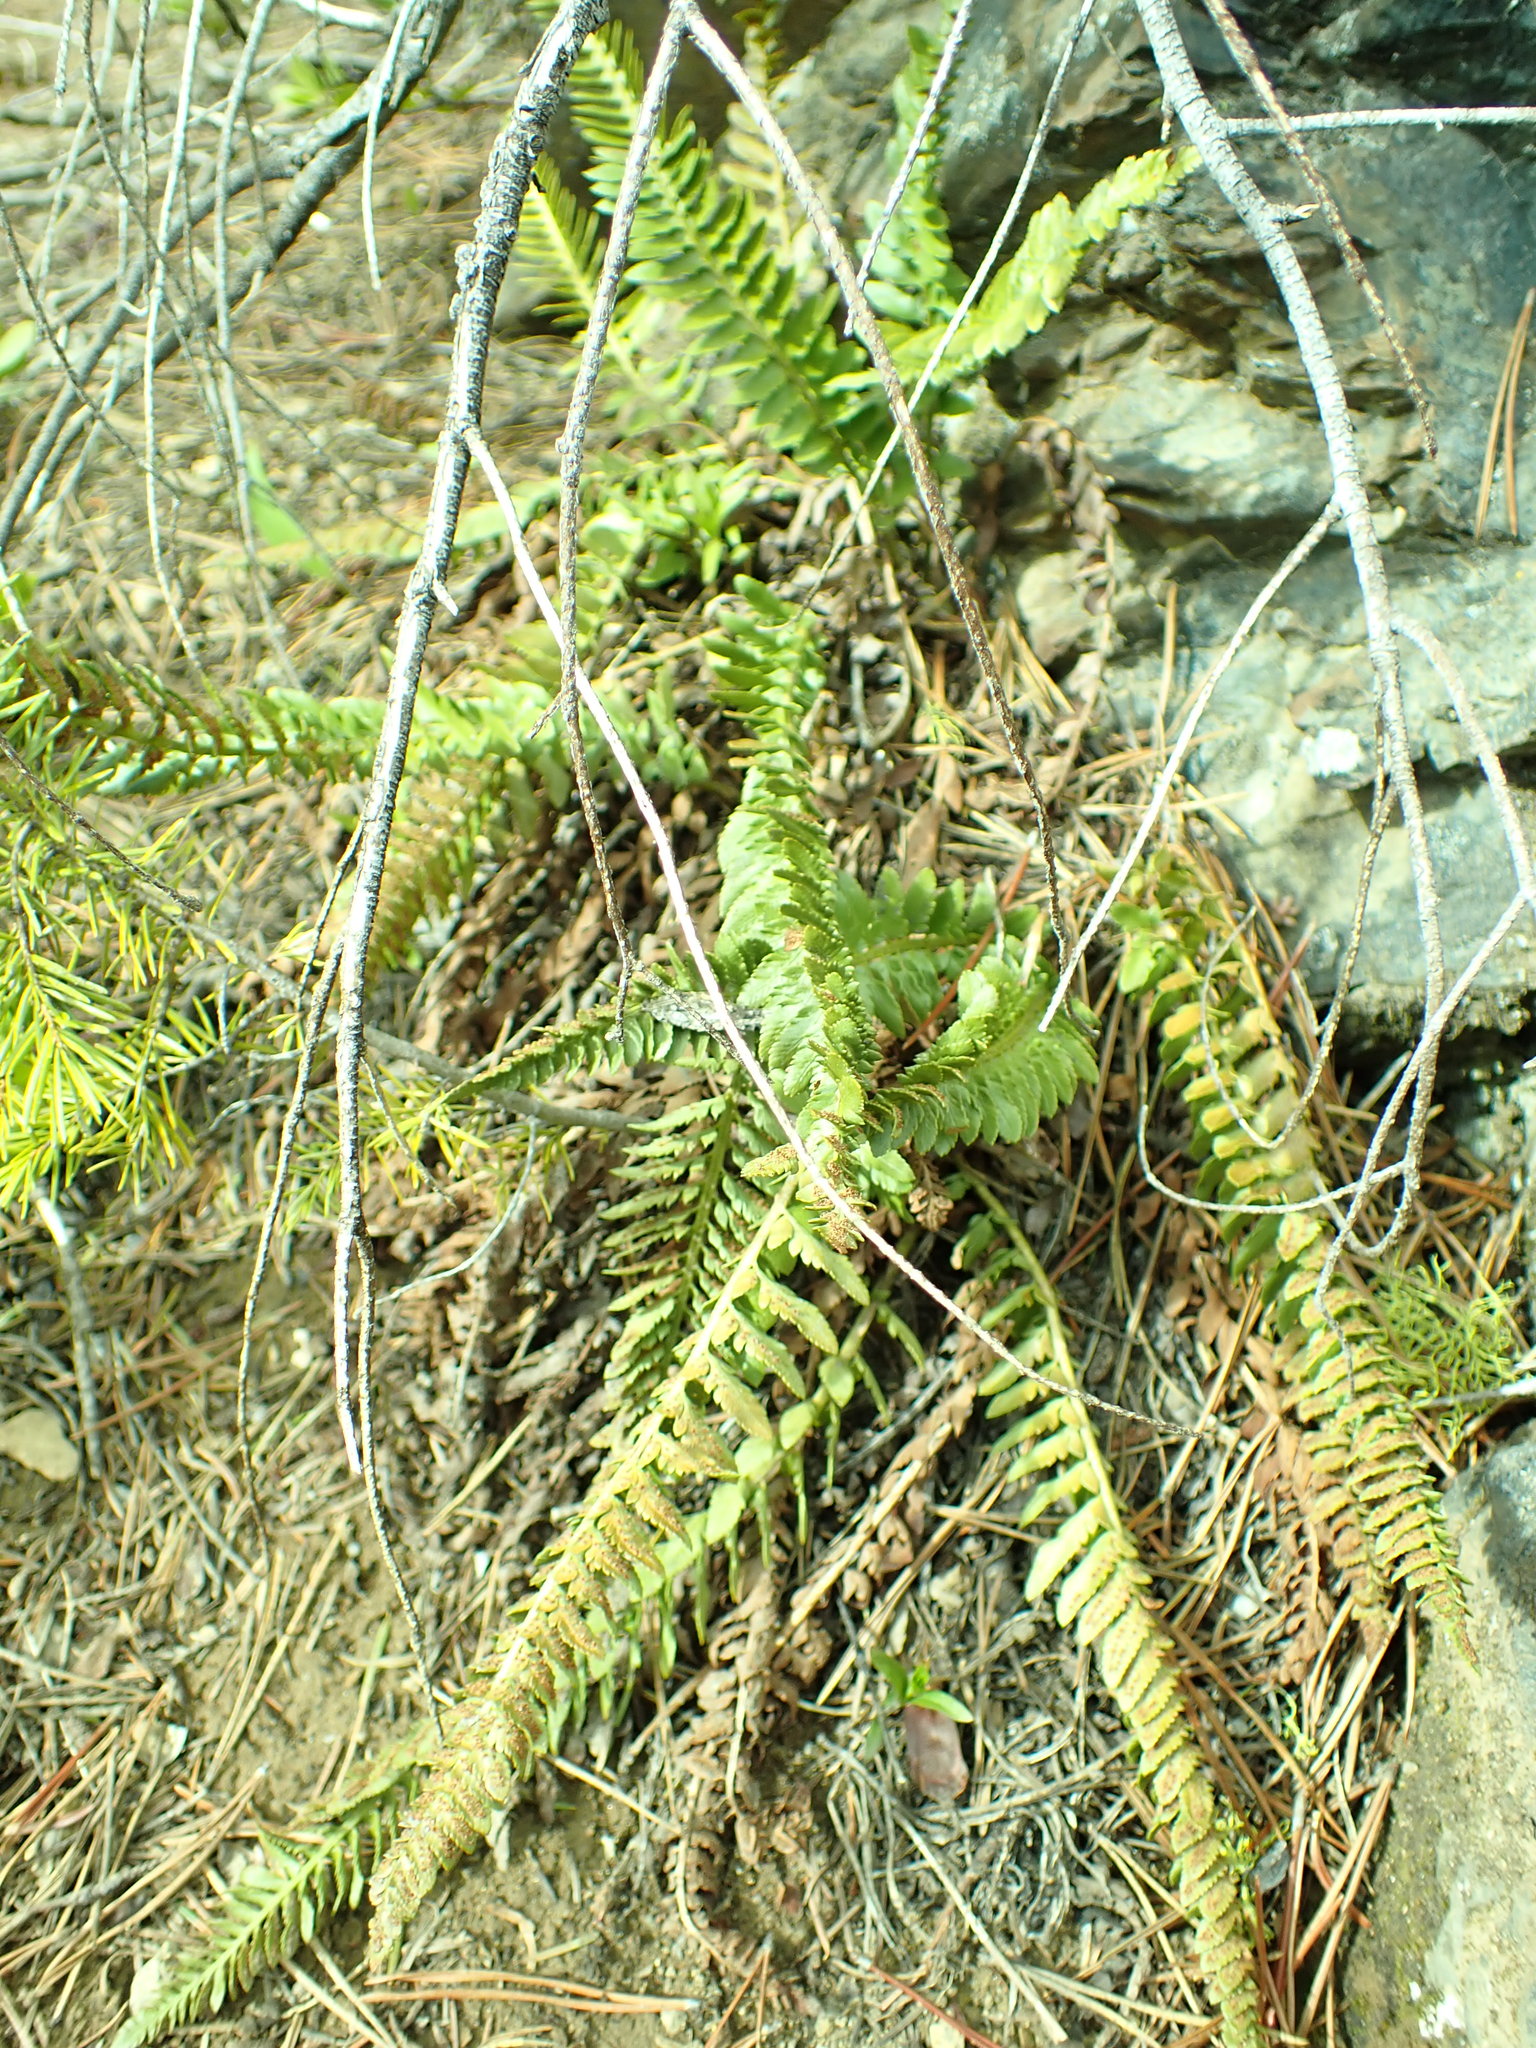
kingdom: Plantae
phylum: Tracheophyta
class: Polypodiopsida
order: Polypodiales
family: Dryopteridaceae
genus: Polystichum
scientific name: Polystichum scopulinum
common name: Eaton's shield fern
